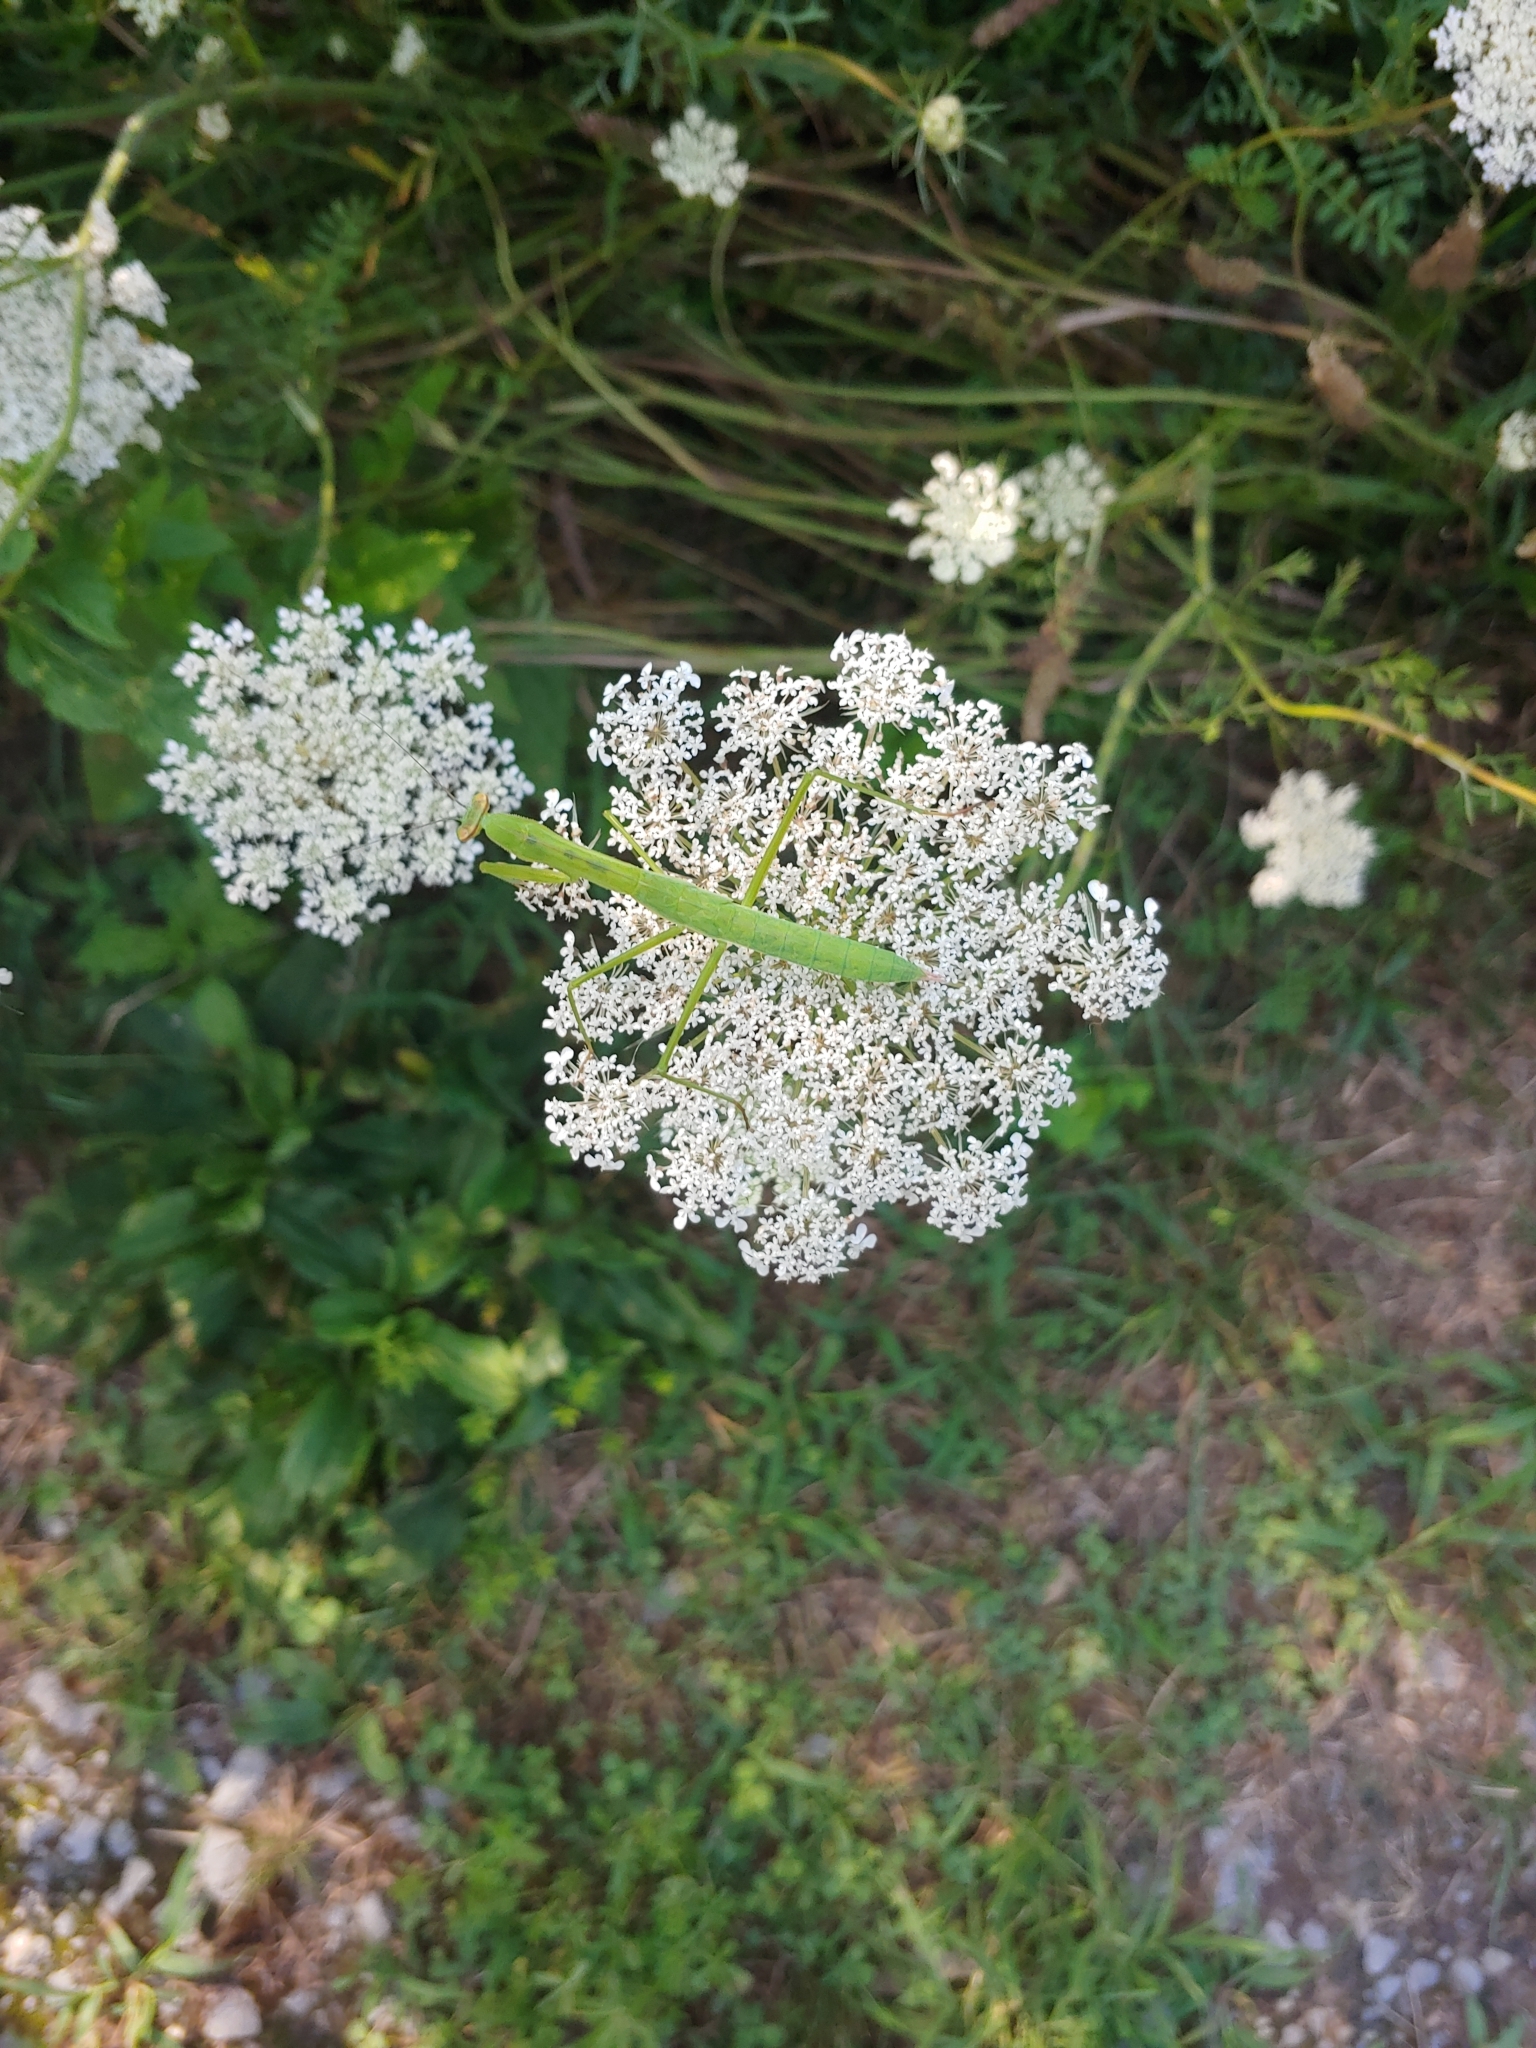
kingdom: Animalia
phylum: Arthropoda
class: Insecta
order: Mantodea
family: Mantidae
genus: Tenodera
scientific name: Tenodera sinensis
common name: Chinese mantis
